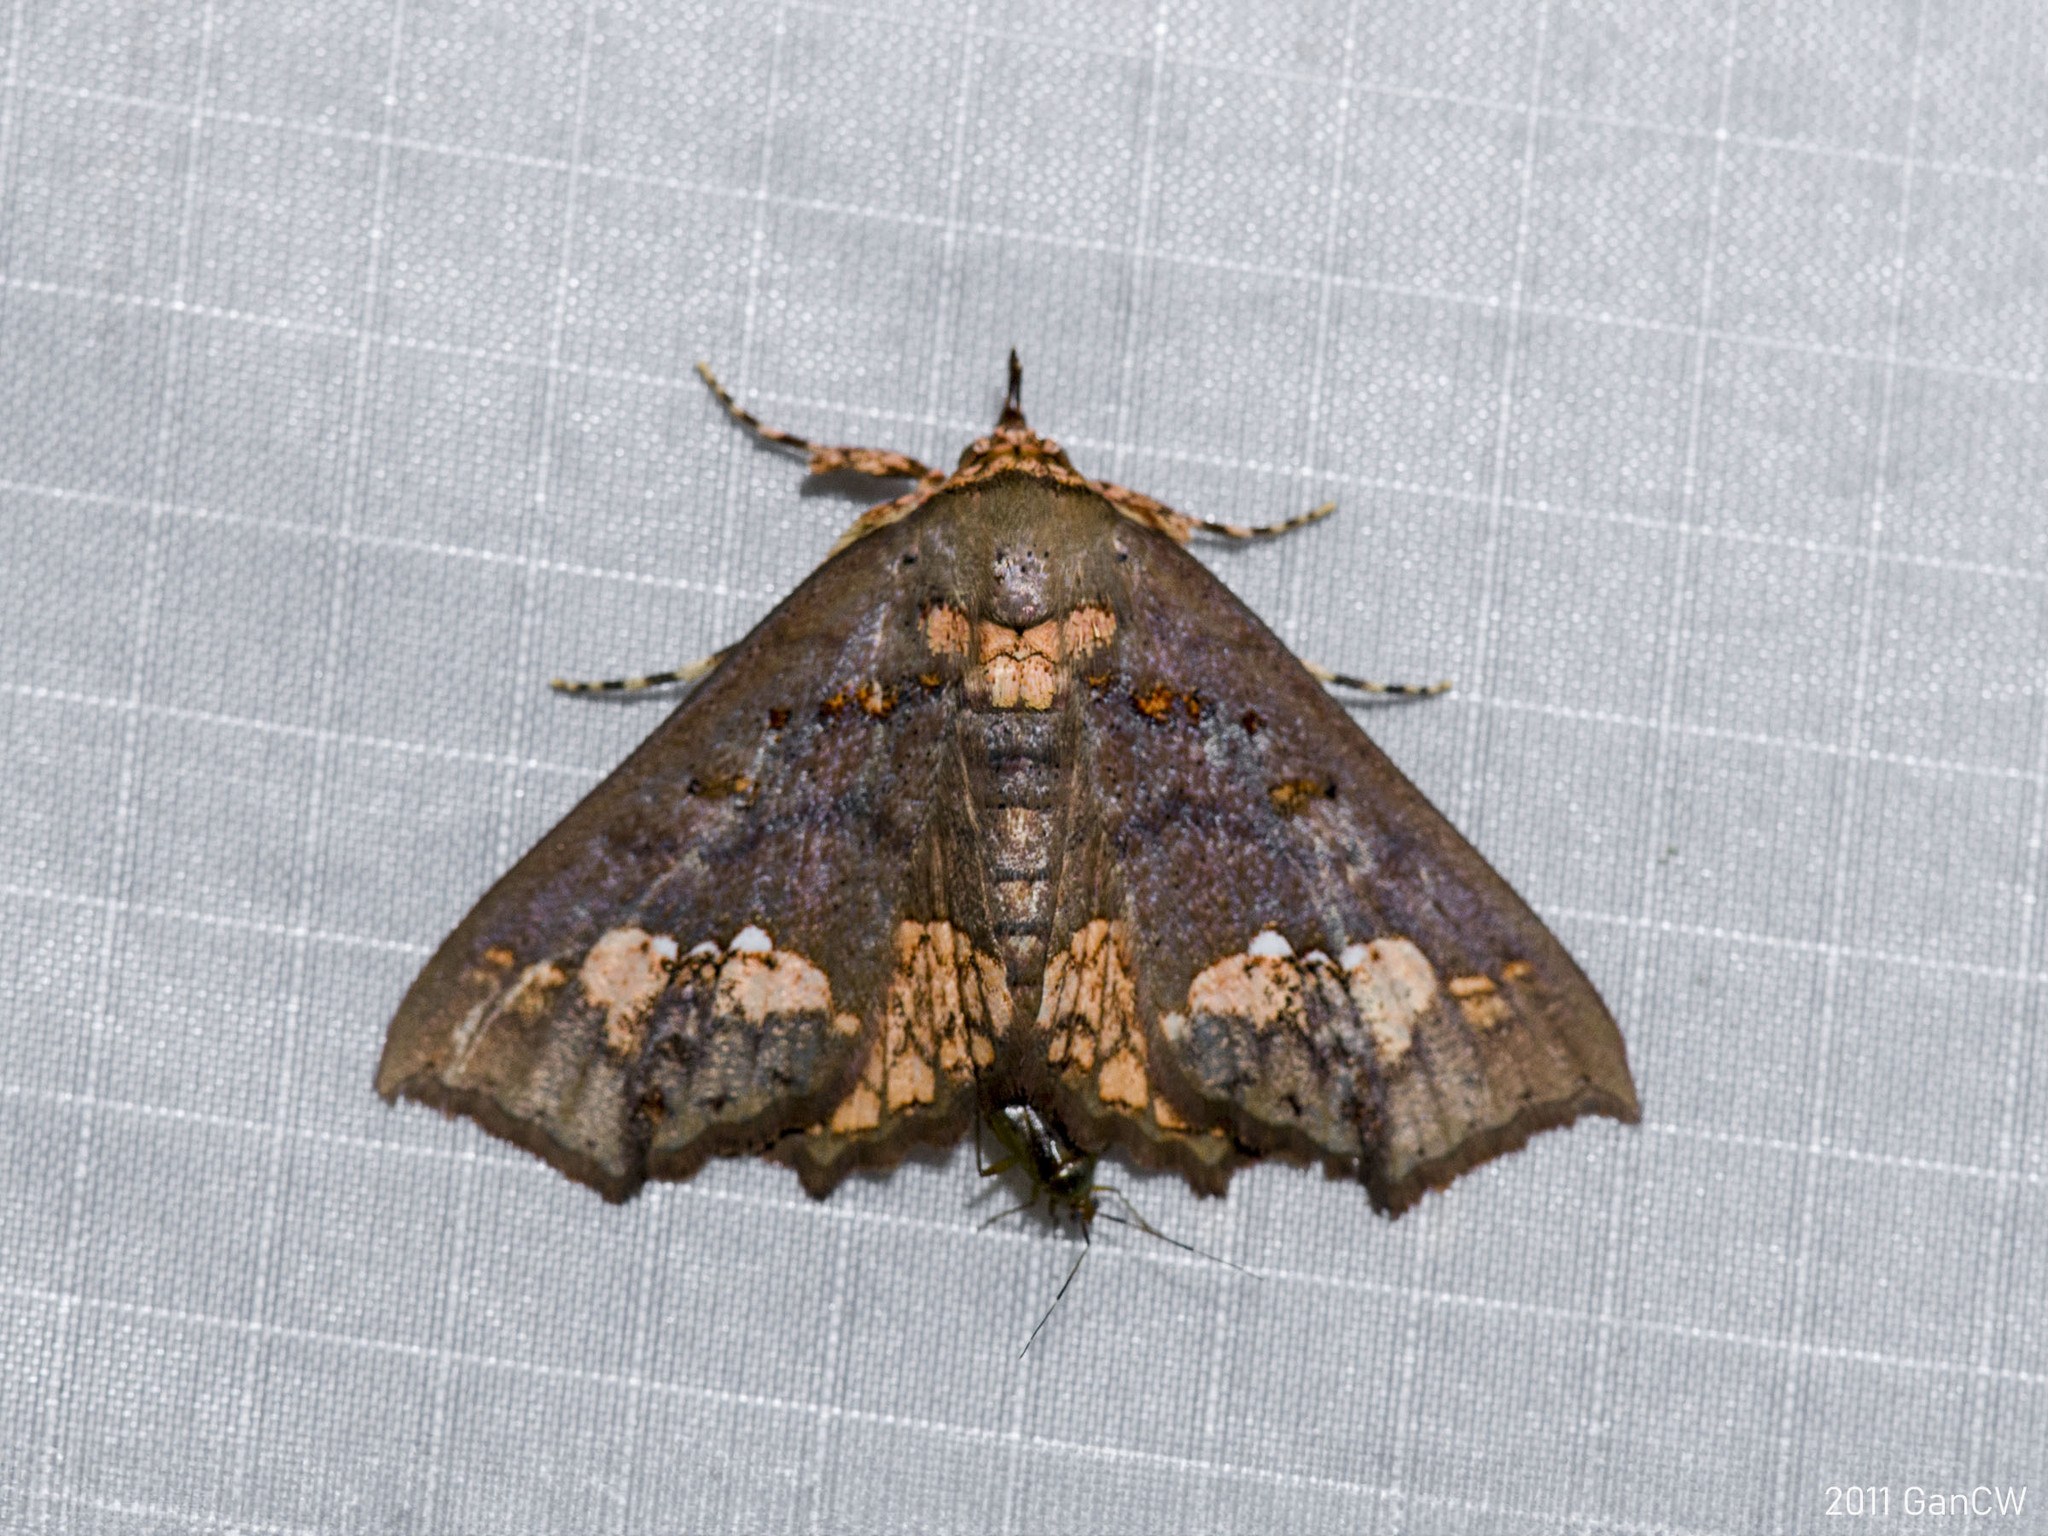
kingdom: Animalia
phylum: Arthropoda
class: Insecta
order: Lepidoptera
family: Erebidae
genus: Lopharthrum
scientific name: Lopharthrum comprimens
